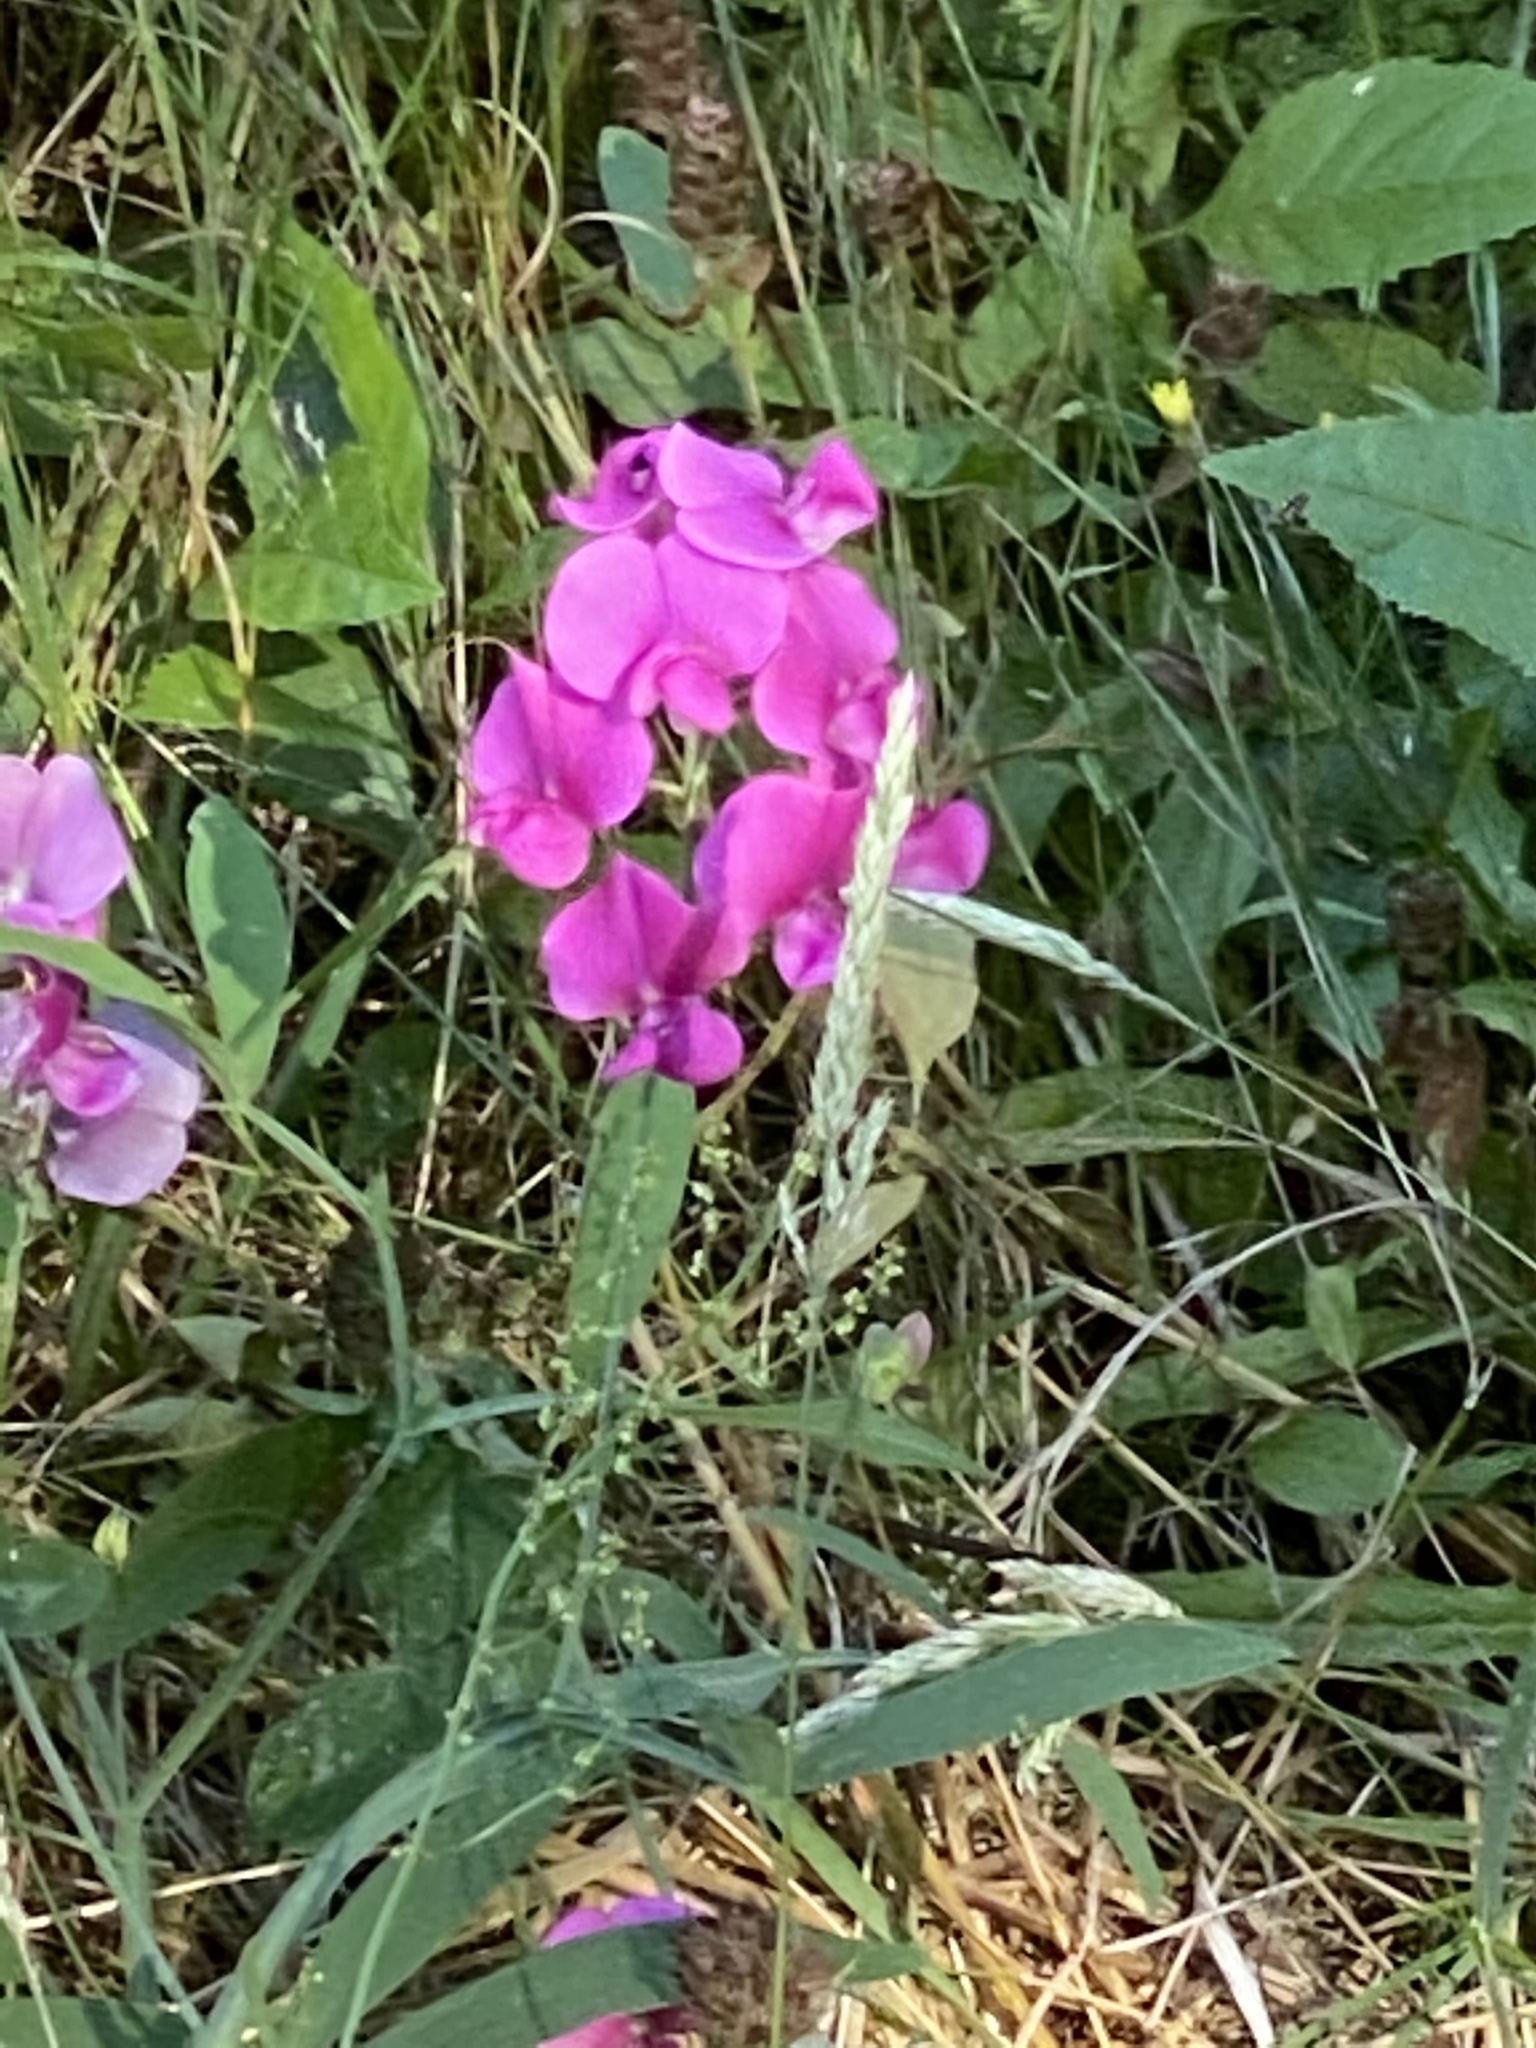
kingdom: Plantae
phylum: Tracheophyta
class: Magnoliopsida
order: Fabales
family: Fabaceae
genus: Lathyrus
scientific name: Lathyrus latifolius
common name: Perennial pea
